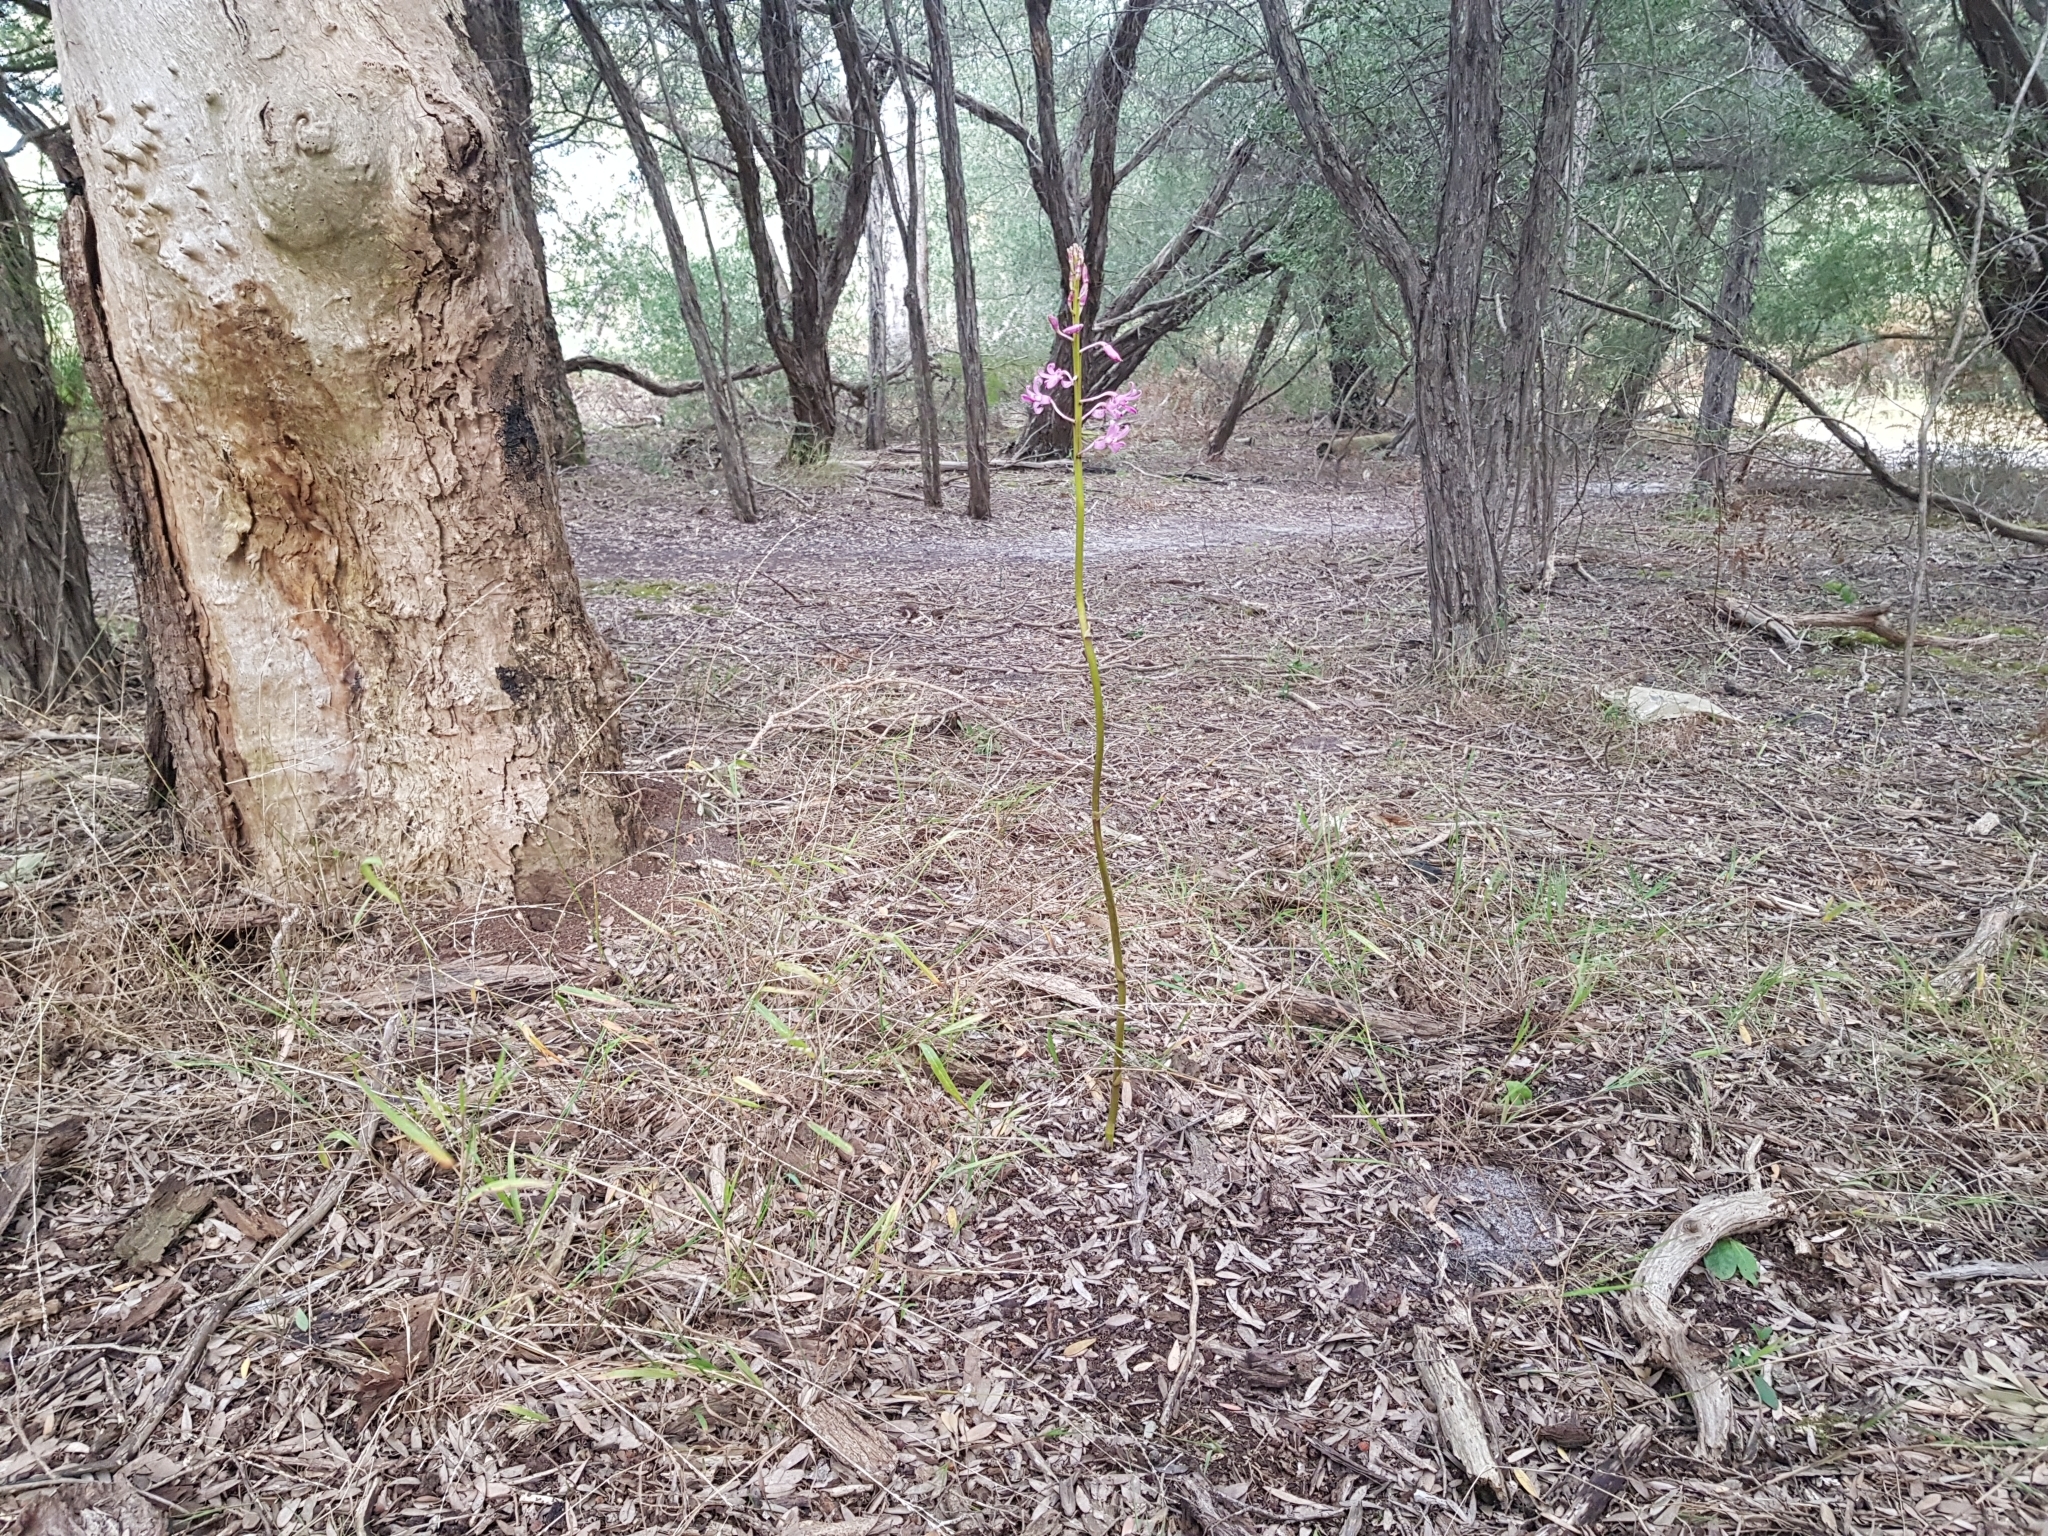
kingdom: Plantae
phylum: Tracheophyta
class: Liliopsida
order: Asparagales
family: Orchidaceae
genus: Dipodium
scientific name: Dipodium roseum
